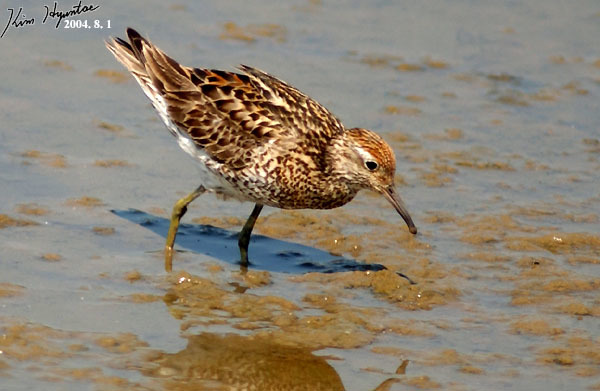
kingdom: Animalia
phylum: Chordata
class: Aves
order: Charadriiformes
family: Scolopacidae
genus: Calidris
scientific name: Calidris acuminata
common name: Sharp-tailed sandpiper
